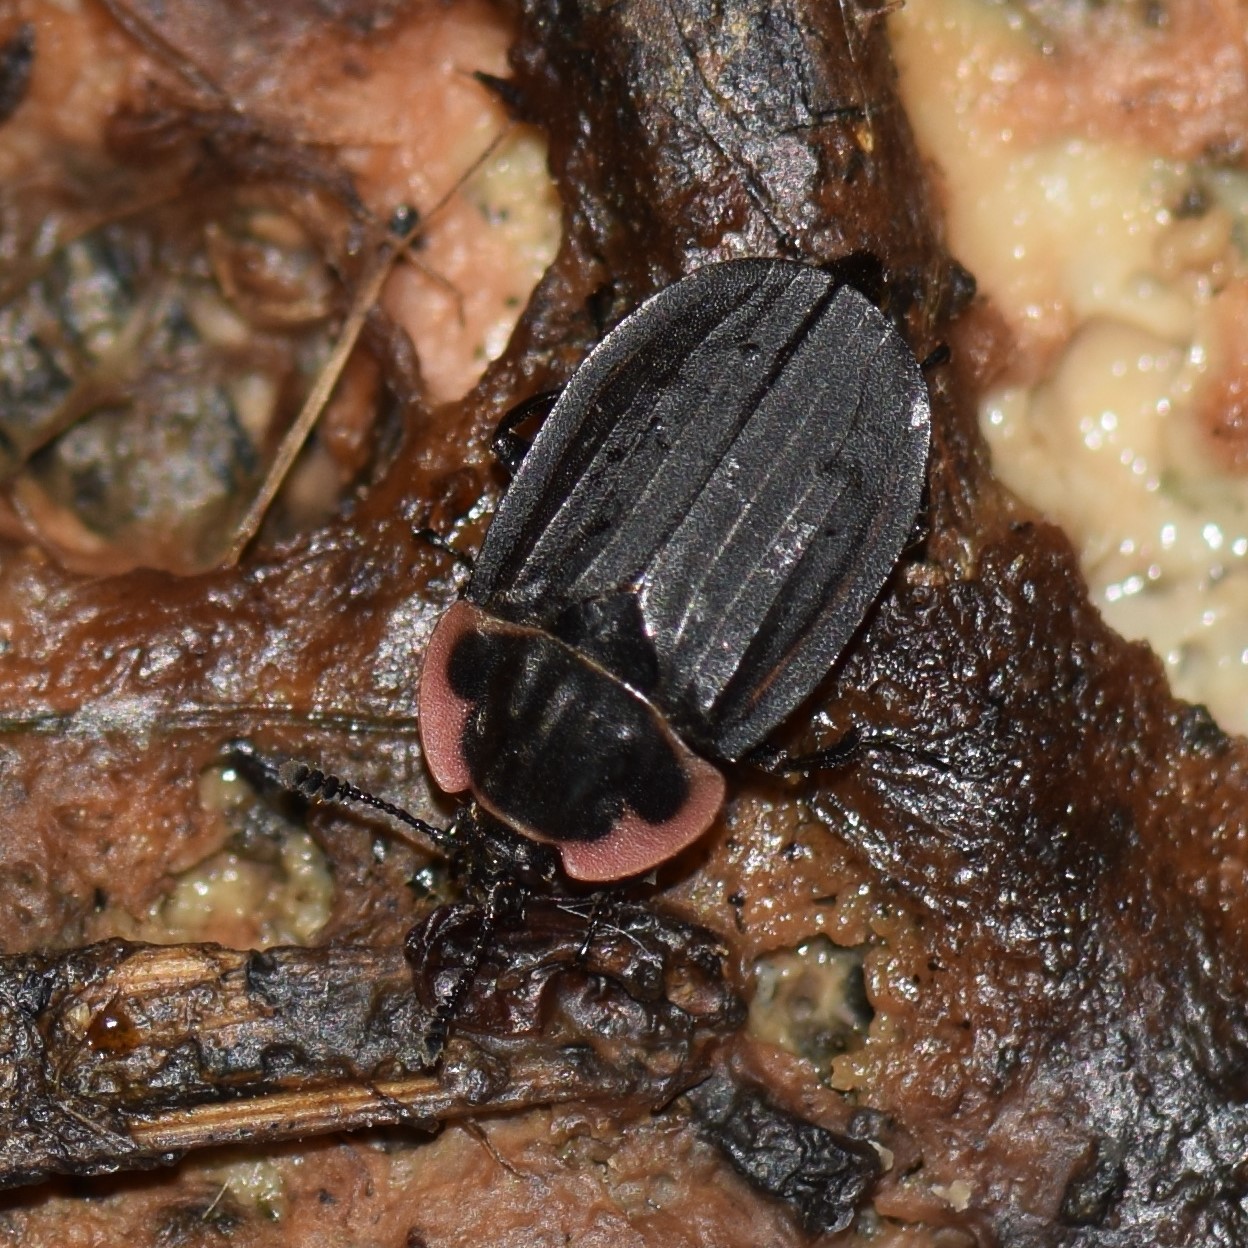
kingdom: Animalia
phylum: Arthropoda
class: Insecta
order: Coleoptera
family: Staphylinidae
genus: Oiceoptoma
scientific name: Oiceoptoma noveboracense
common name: Margined carrion beetle
